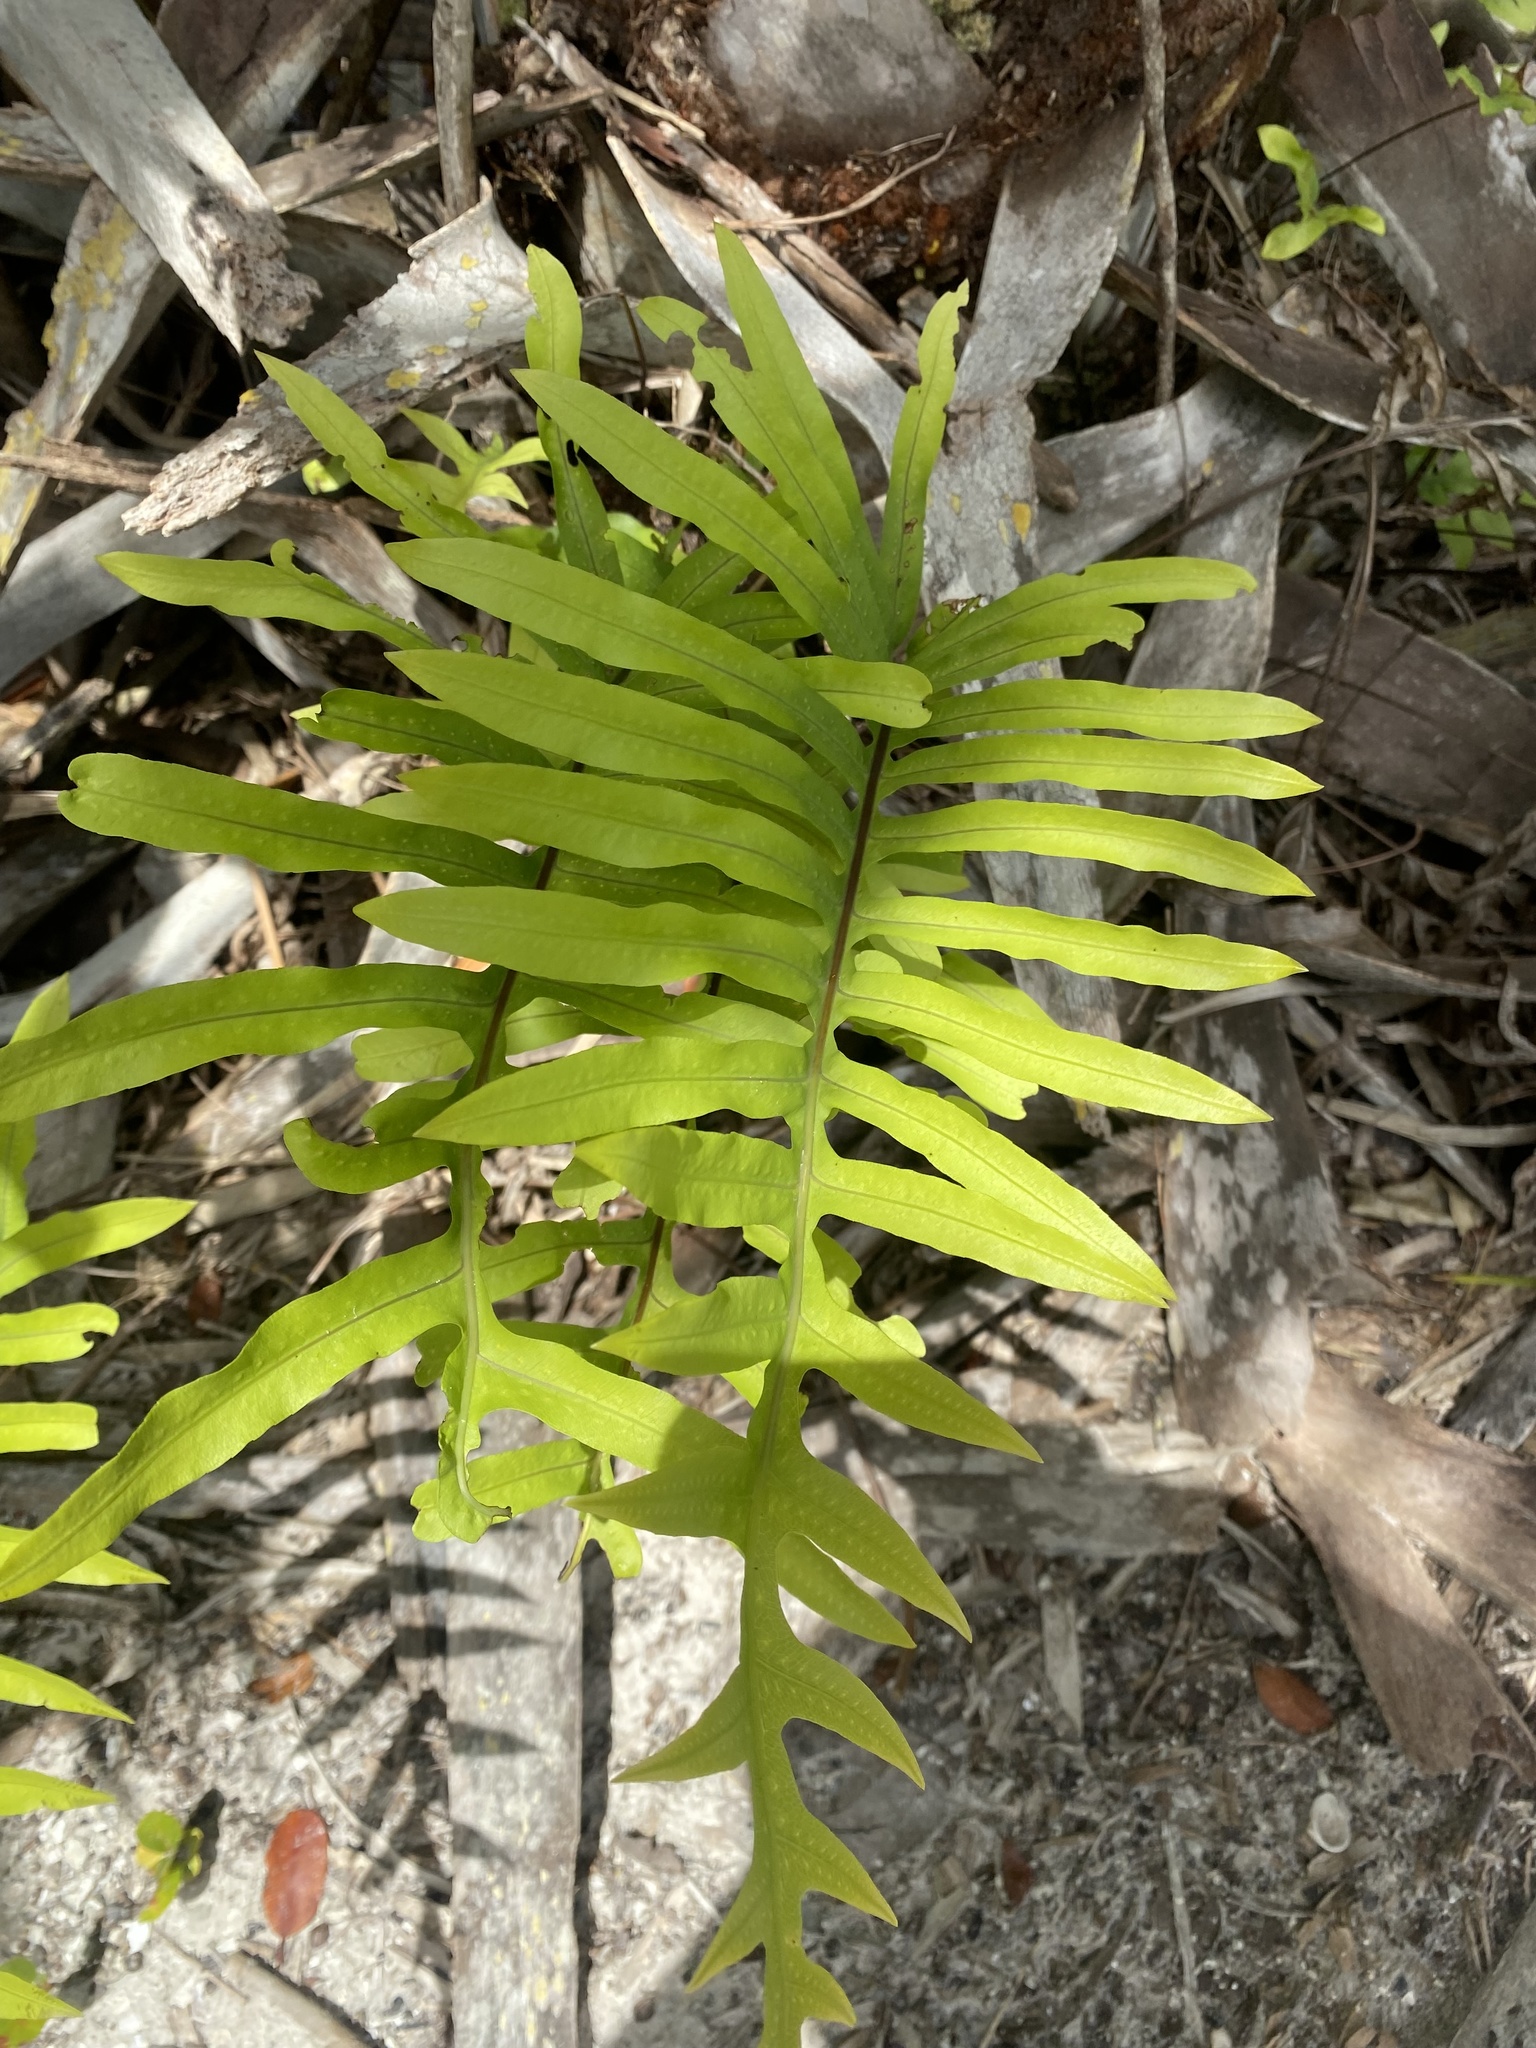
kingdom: Plantae
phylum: Tracheophyta
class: Polypodiopsida
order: Polypodiales
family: Polypodiaceae
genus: Phlebodium
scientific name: Phlebodium aureum
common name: Gold-foot fern
